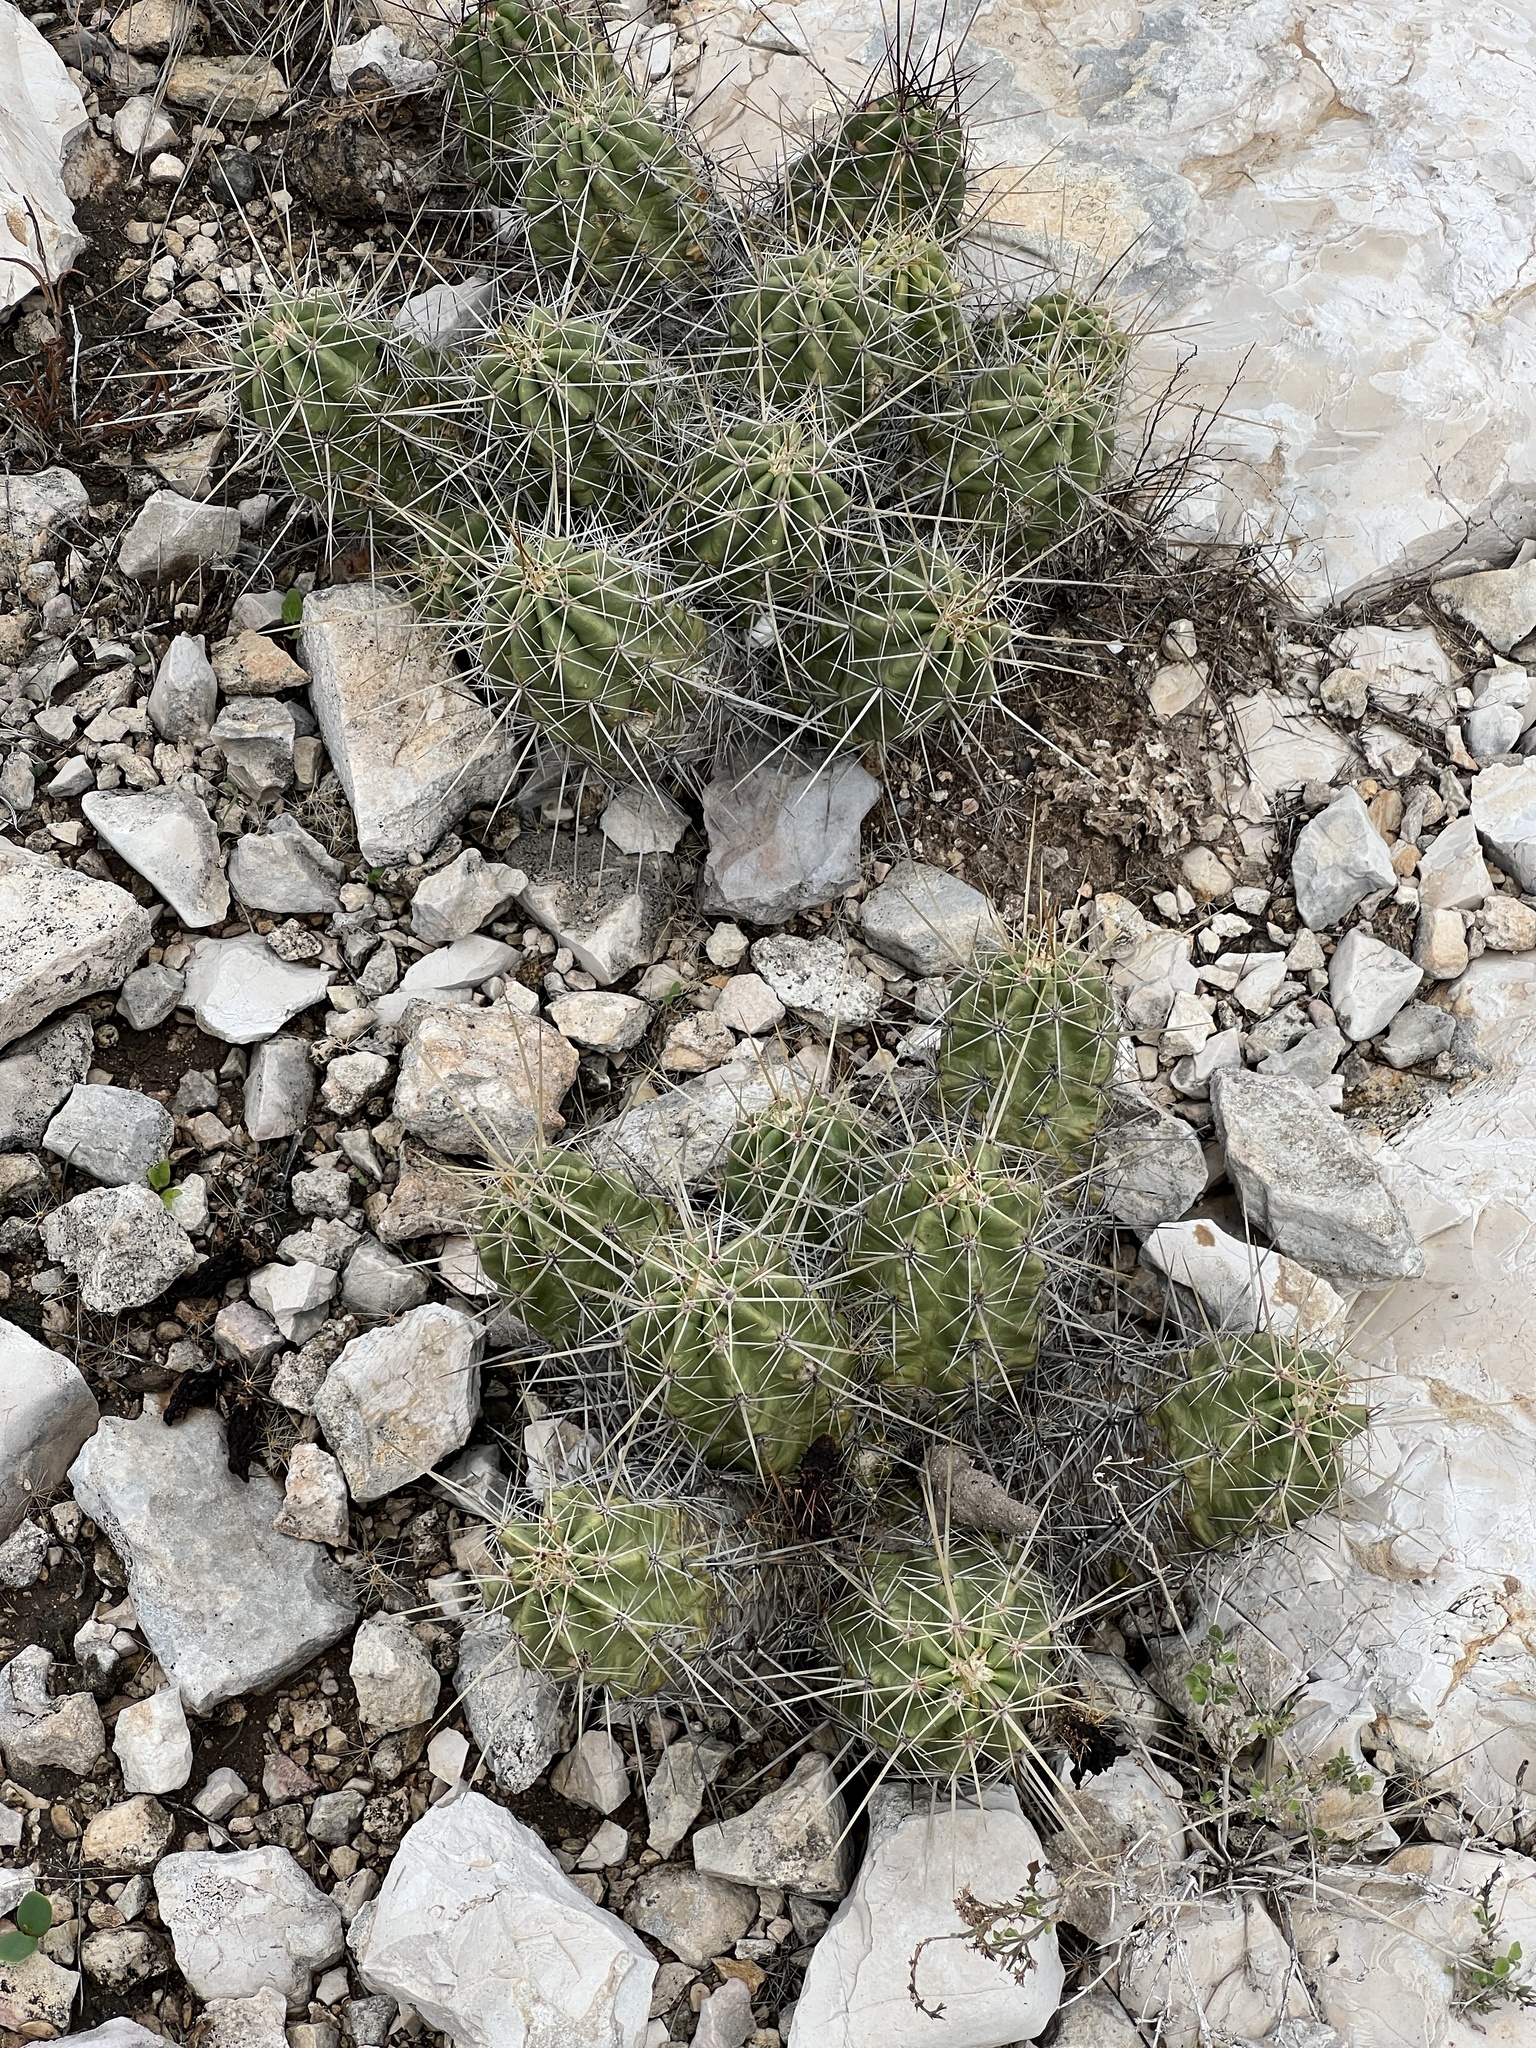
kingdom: Plantae
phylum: Tracheophyta
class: Magnoliopsida
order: Caryophyllales
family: Cactaceae
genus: Echinocereus
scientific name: Echinocereus enneacanthus
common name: Pitaya
